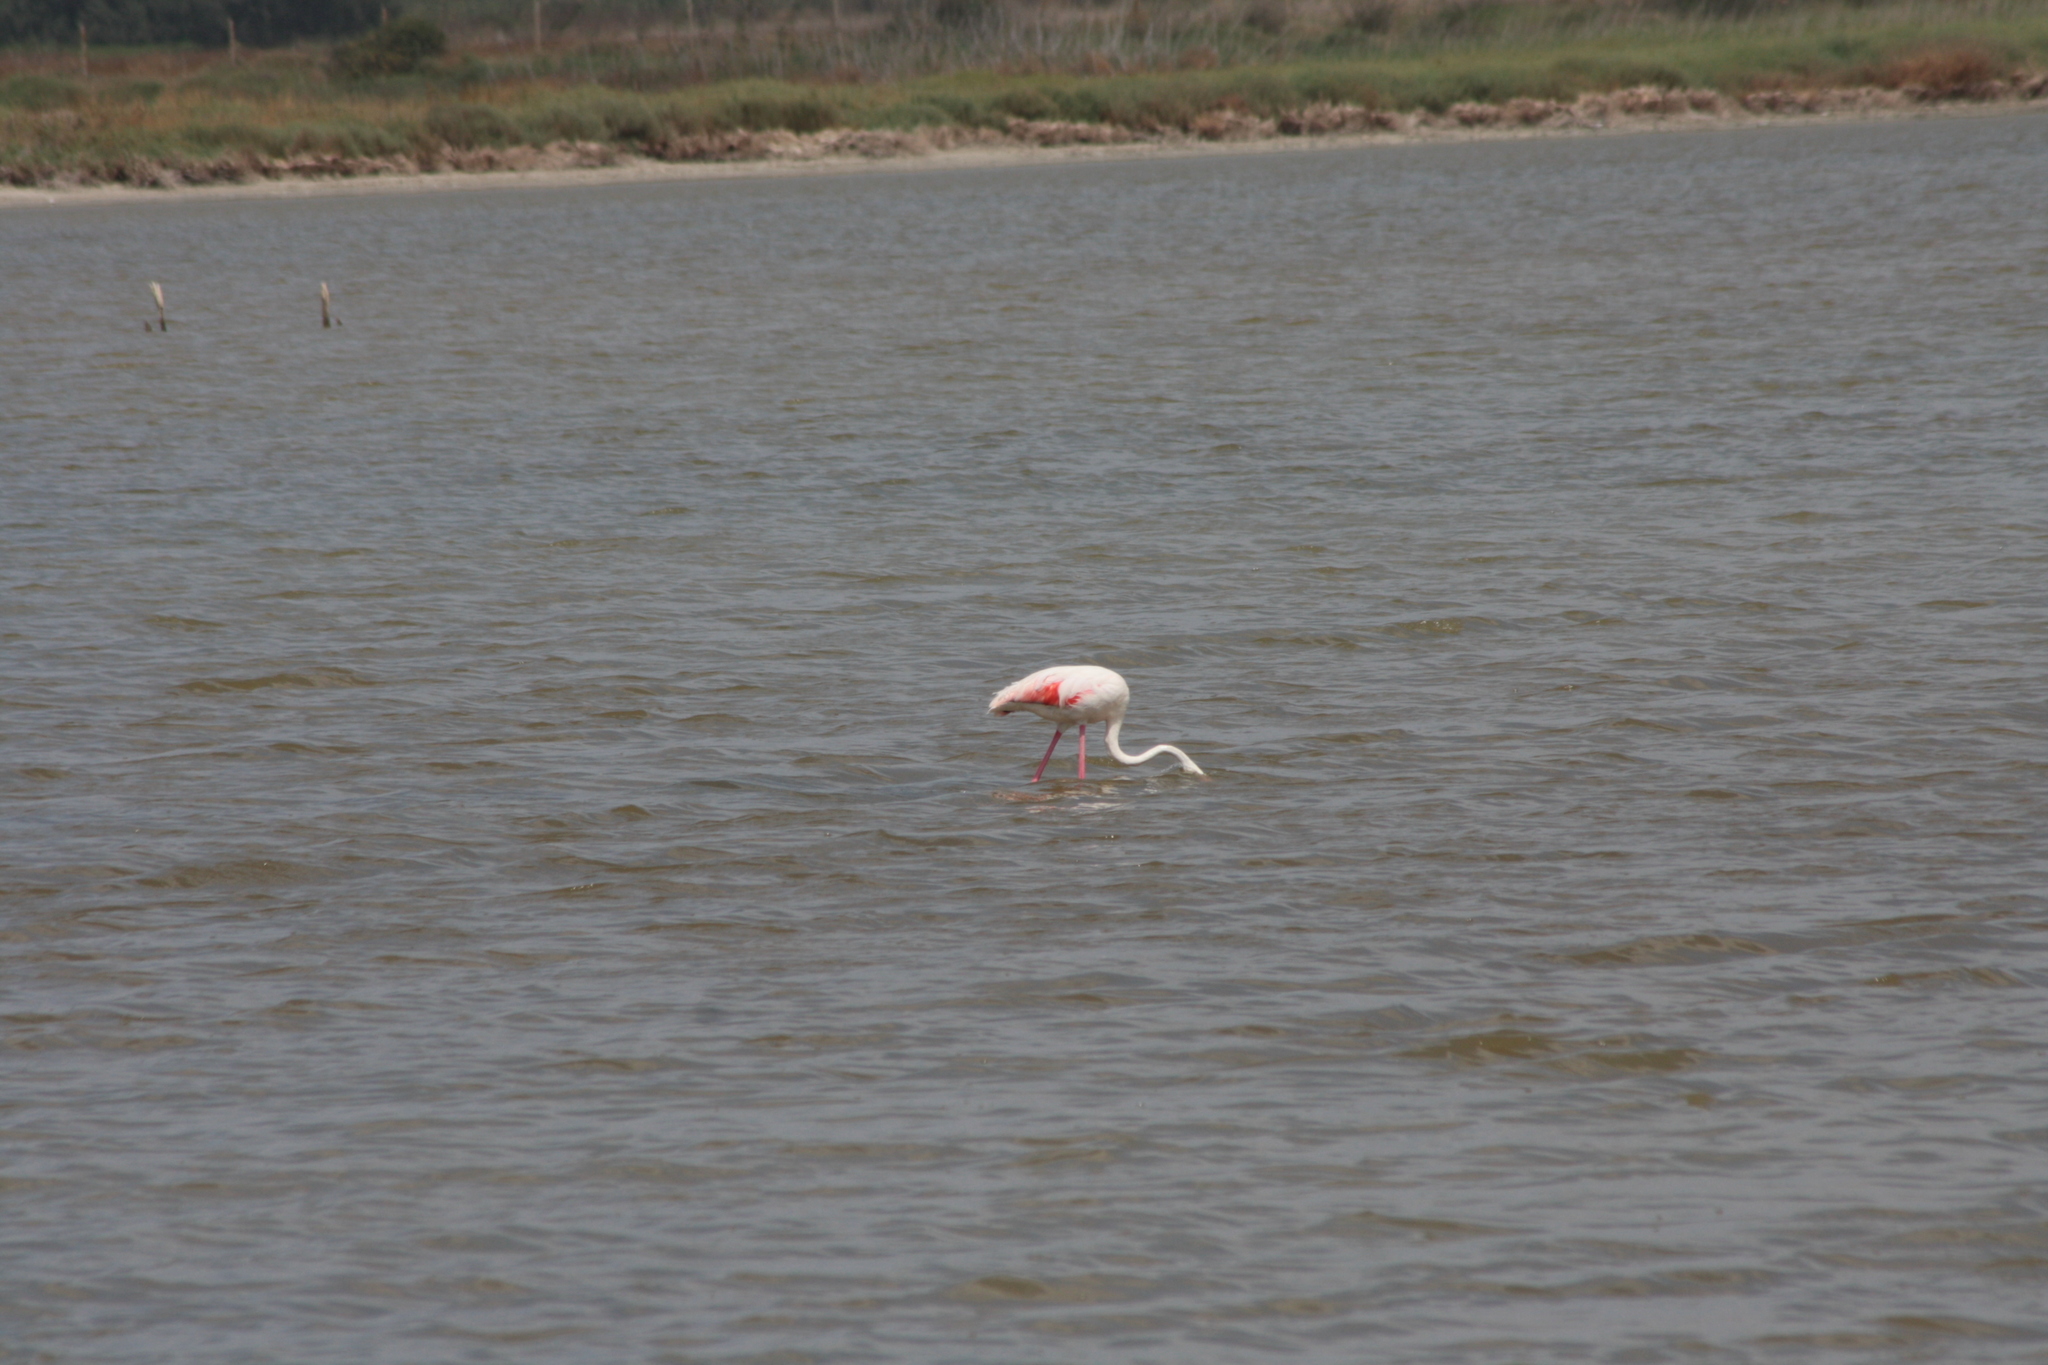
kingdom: Animalia
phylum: Chordata
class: Aves
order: Phoenicopteriformes
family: Phoenicopteridae
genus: Phoenicopterus
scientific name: Phoenicopterus roseus
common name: Greater flamingo
